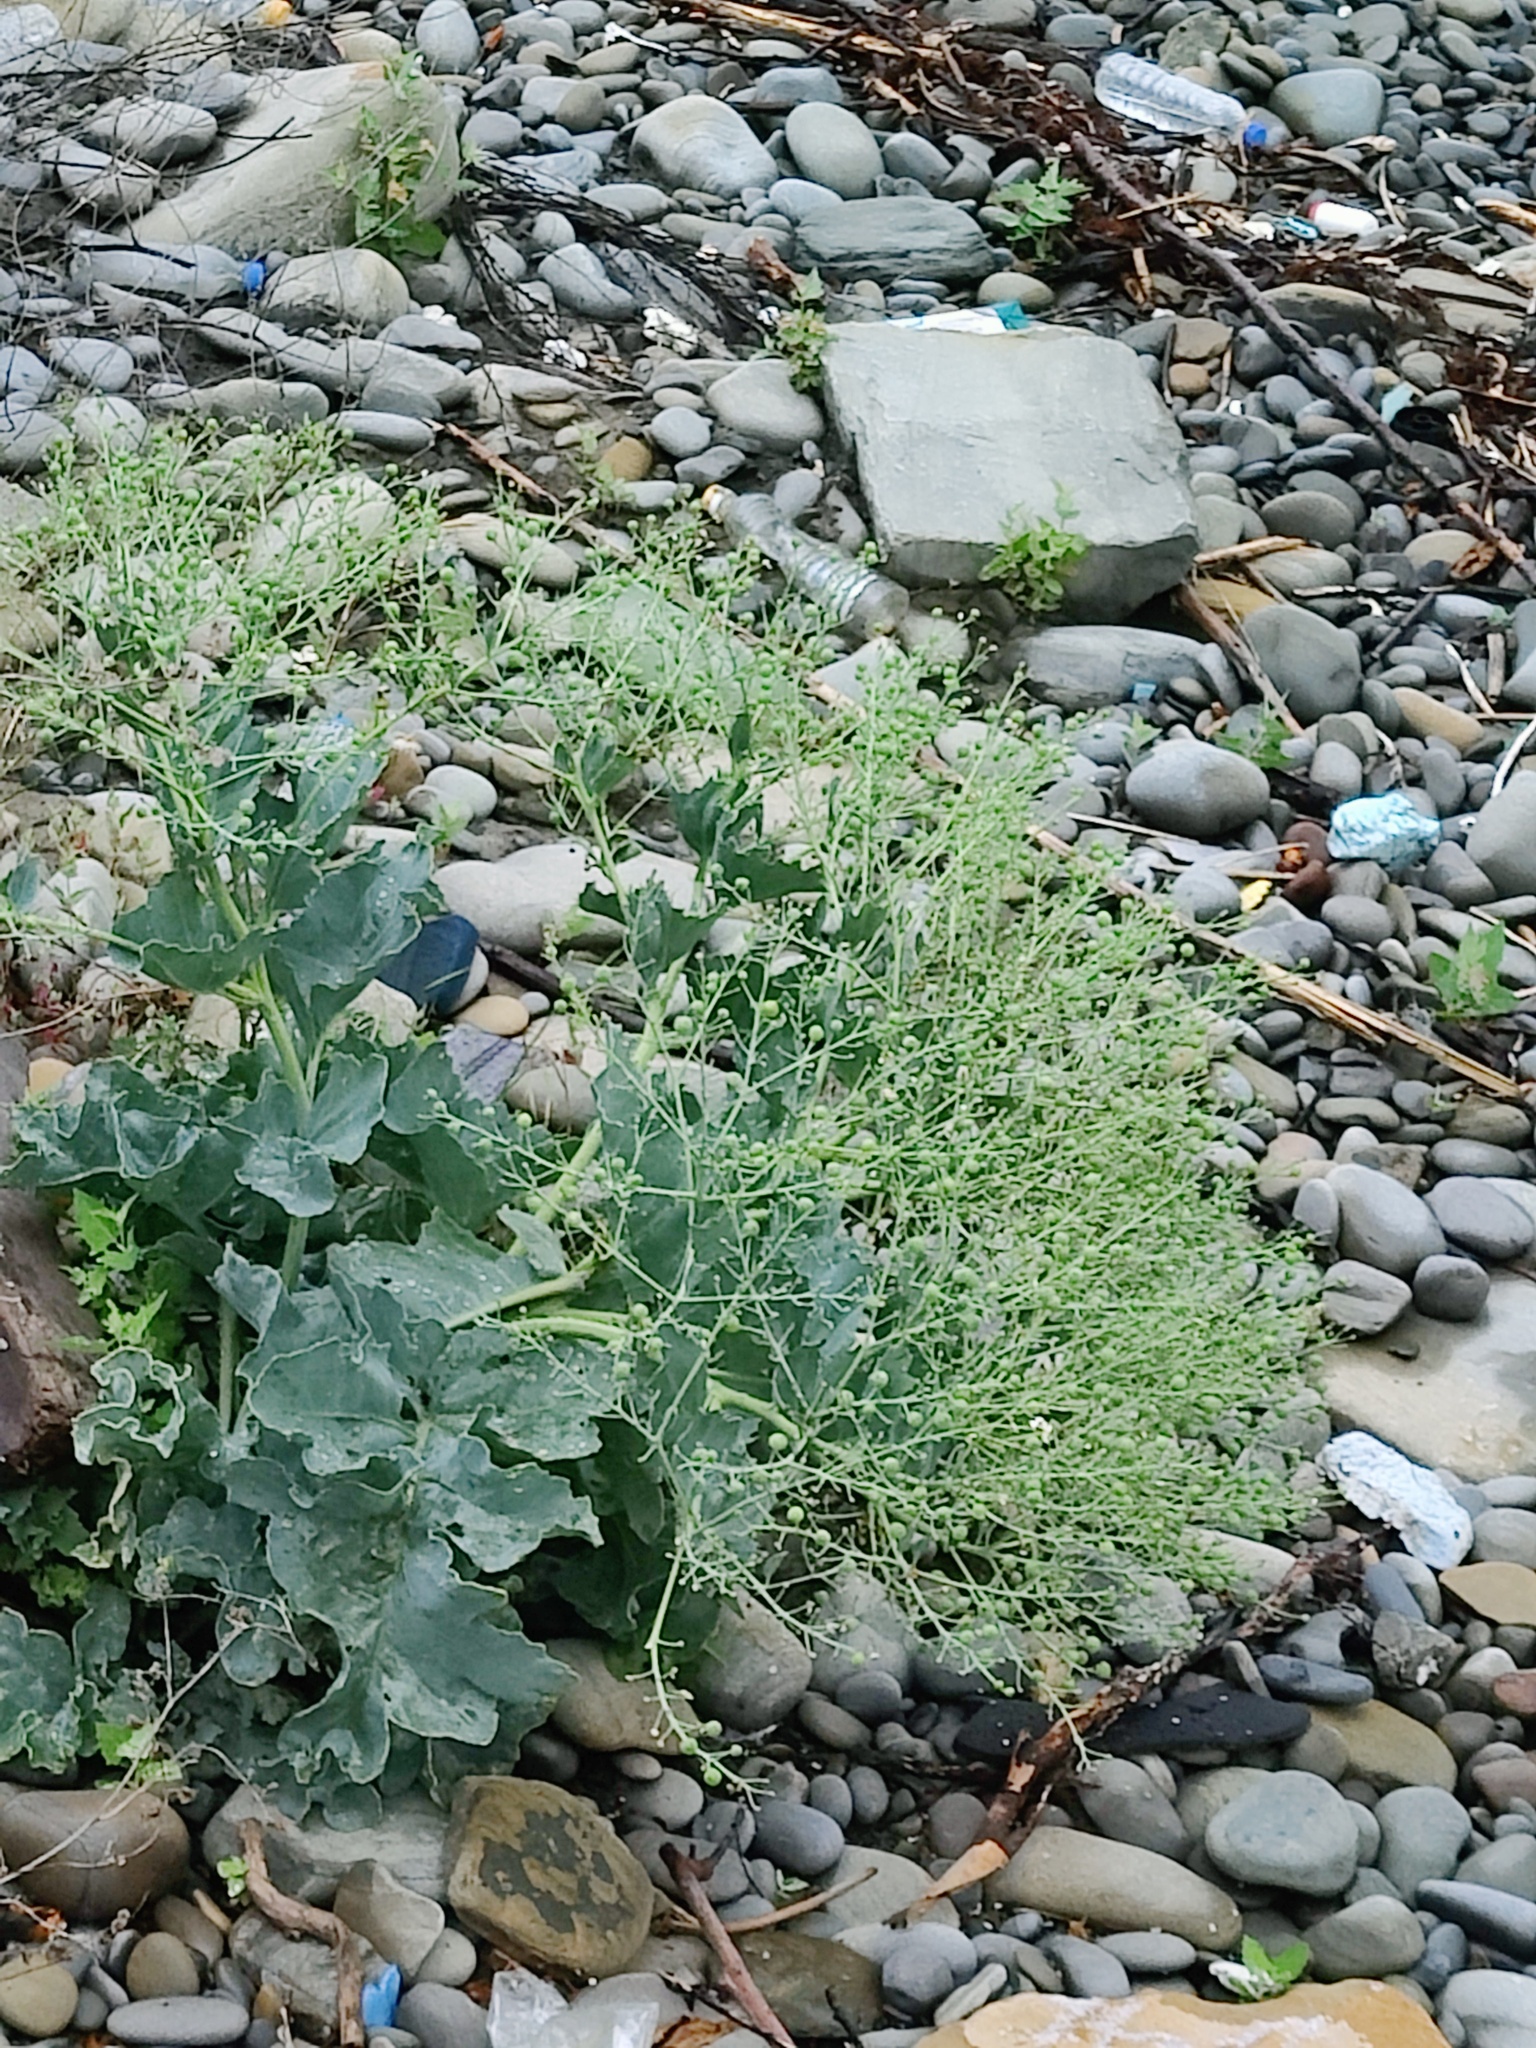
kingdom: Plantae
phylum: Tracheophyta
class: Magnoliopsida
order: Brassicales
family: Brassicaceae
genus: Crambe
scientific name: Crambe maritima
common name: Sea-kale
